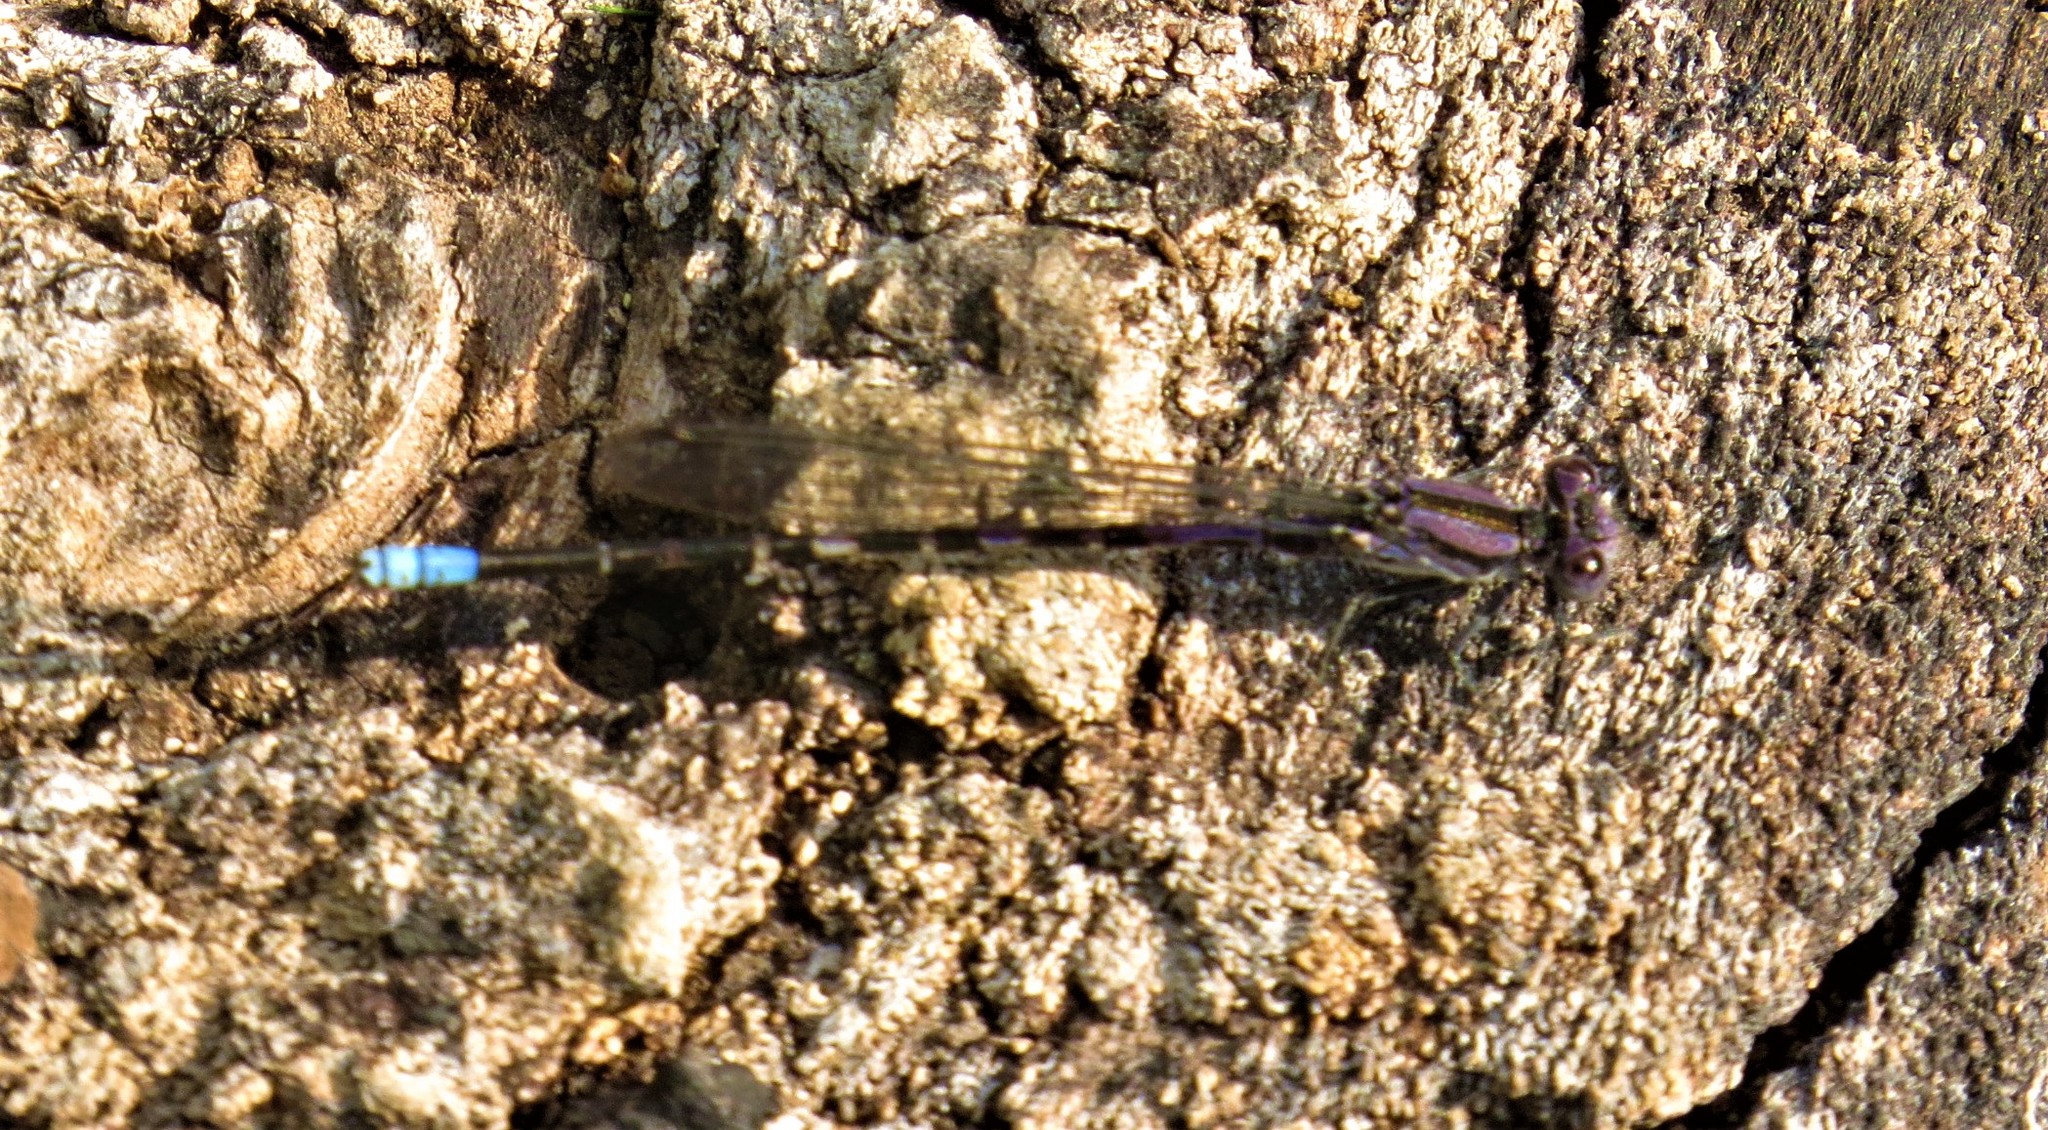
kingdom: Animalia
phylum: Arthropoda
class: Insecta
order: Odonata
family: Coenagrionidae
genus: Argia
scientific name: Argia immunda
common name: Kiowa dancer
